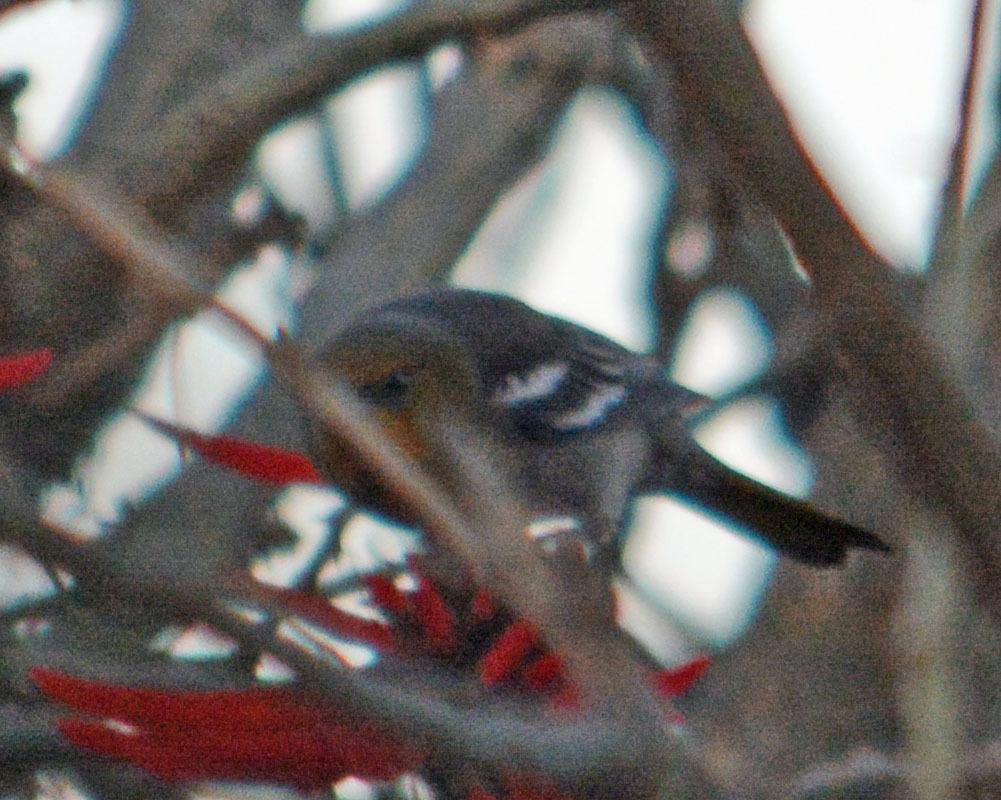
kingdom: Animalia
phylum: Chordata
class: Aves
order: Passeriformes
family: Icteridae
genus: Icterus
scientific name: Icterus abeillei
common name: Black-backed oriole
